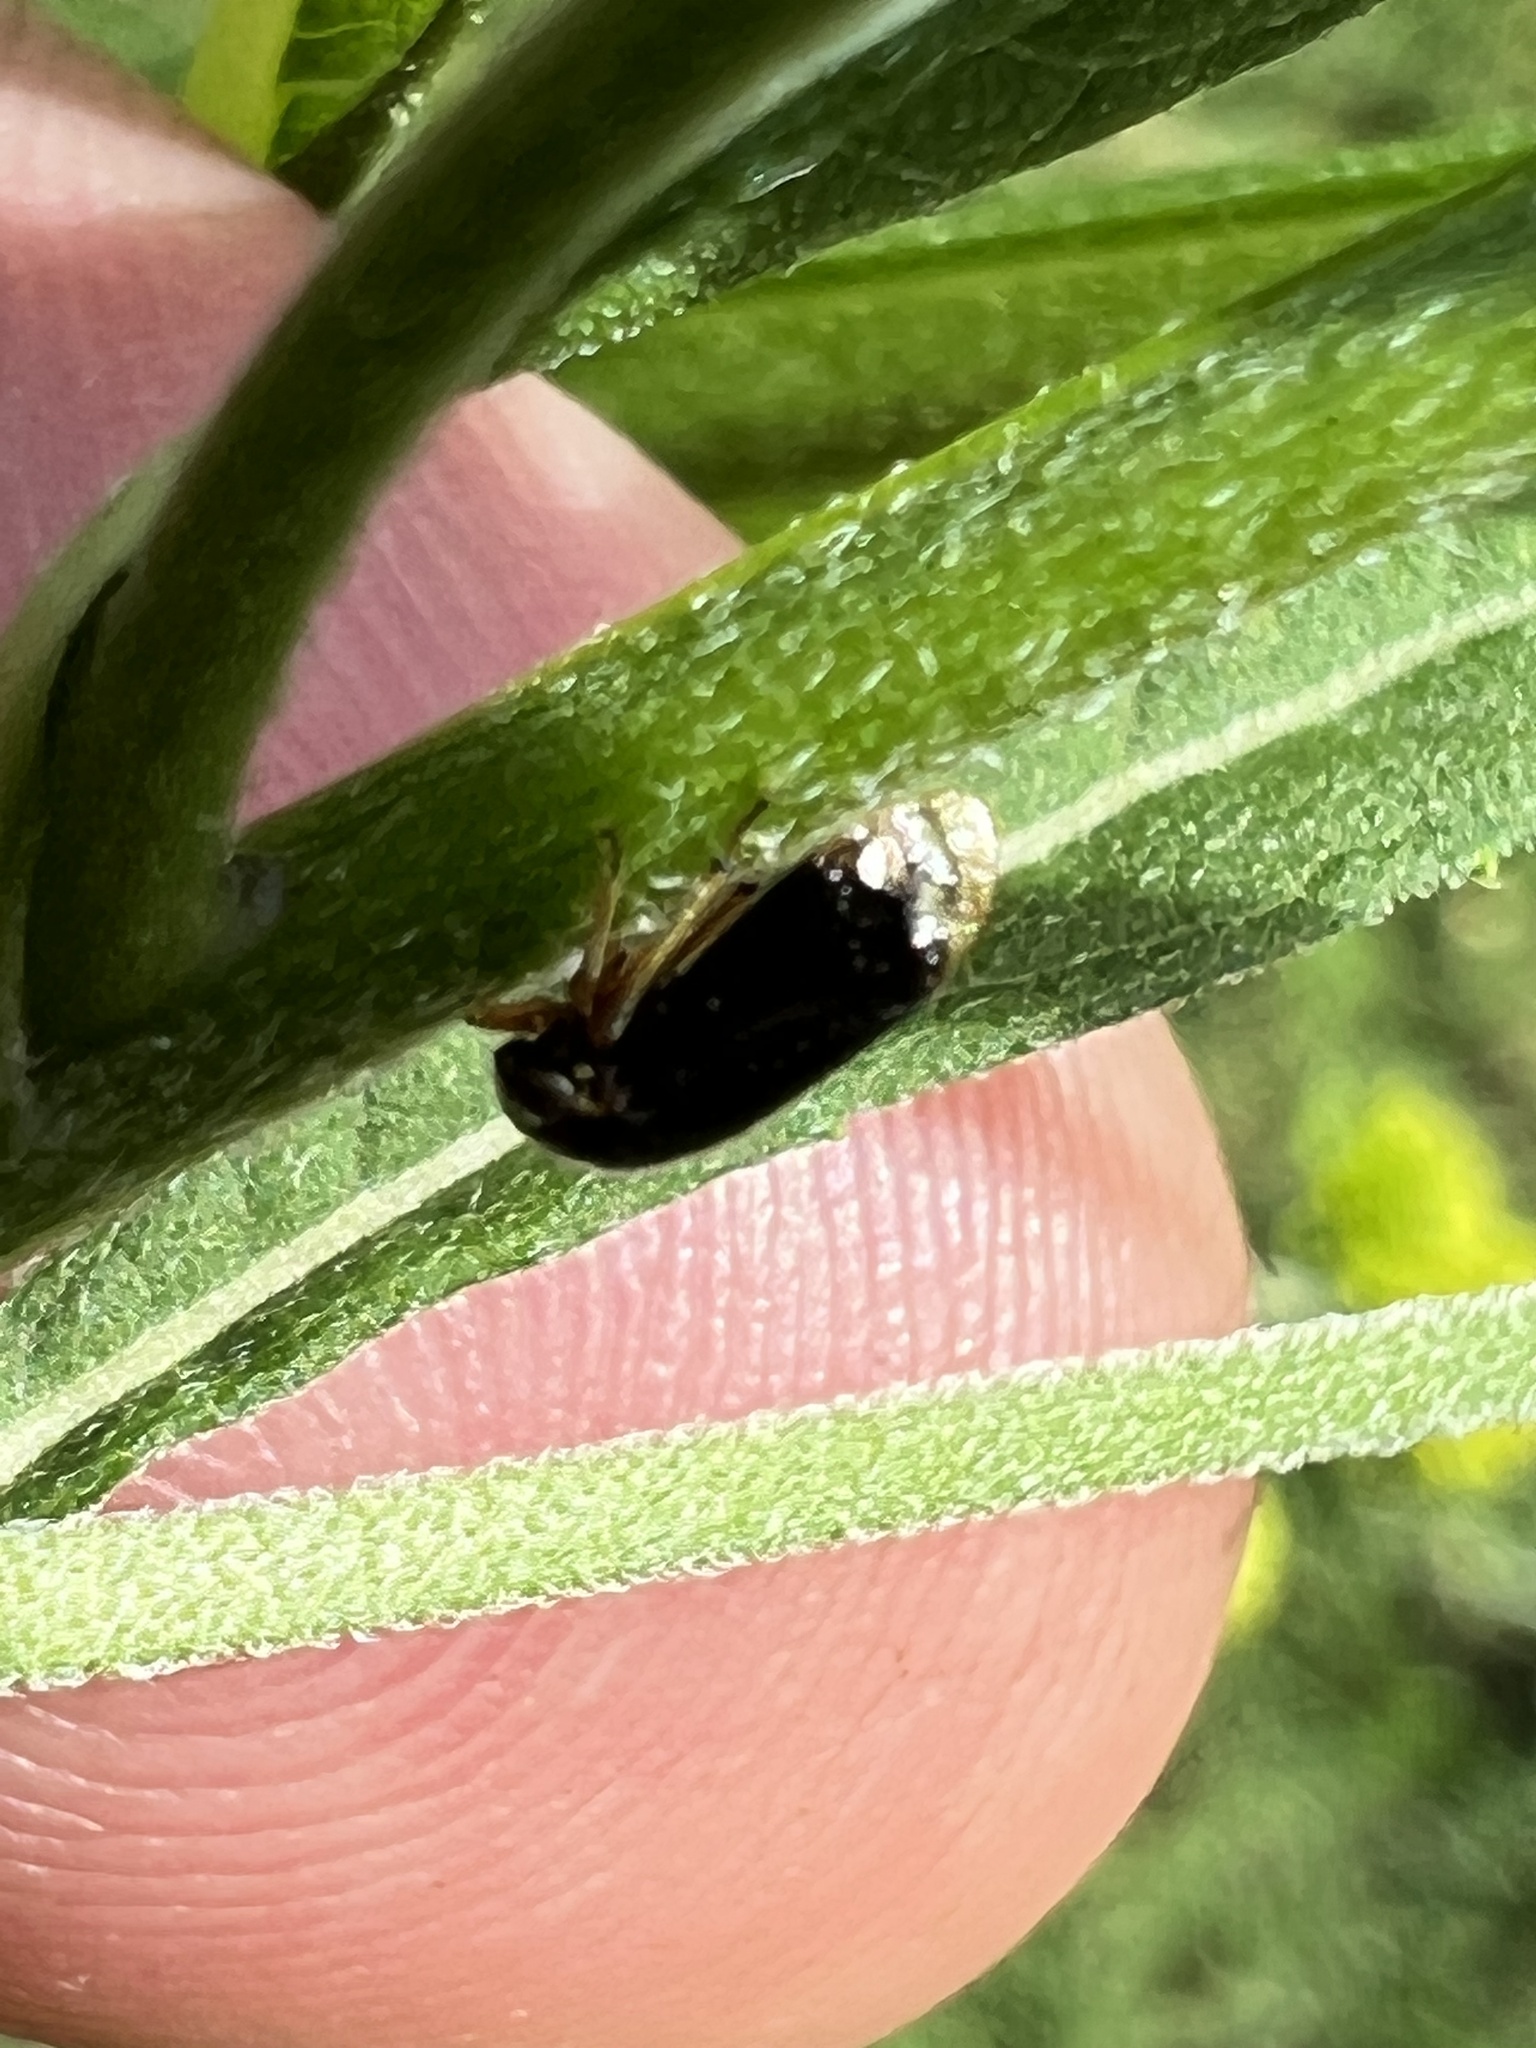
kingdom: Animalia
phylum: Arthropoda
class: Insecta
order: Hemiptera
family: Membracidae
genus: Acutalis
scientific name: Acutalis tartarea
